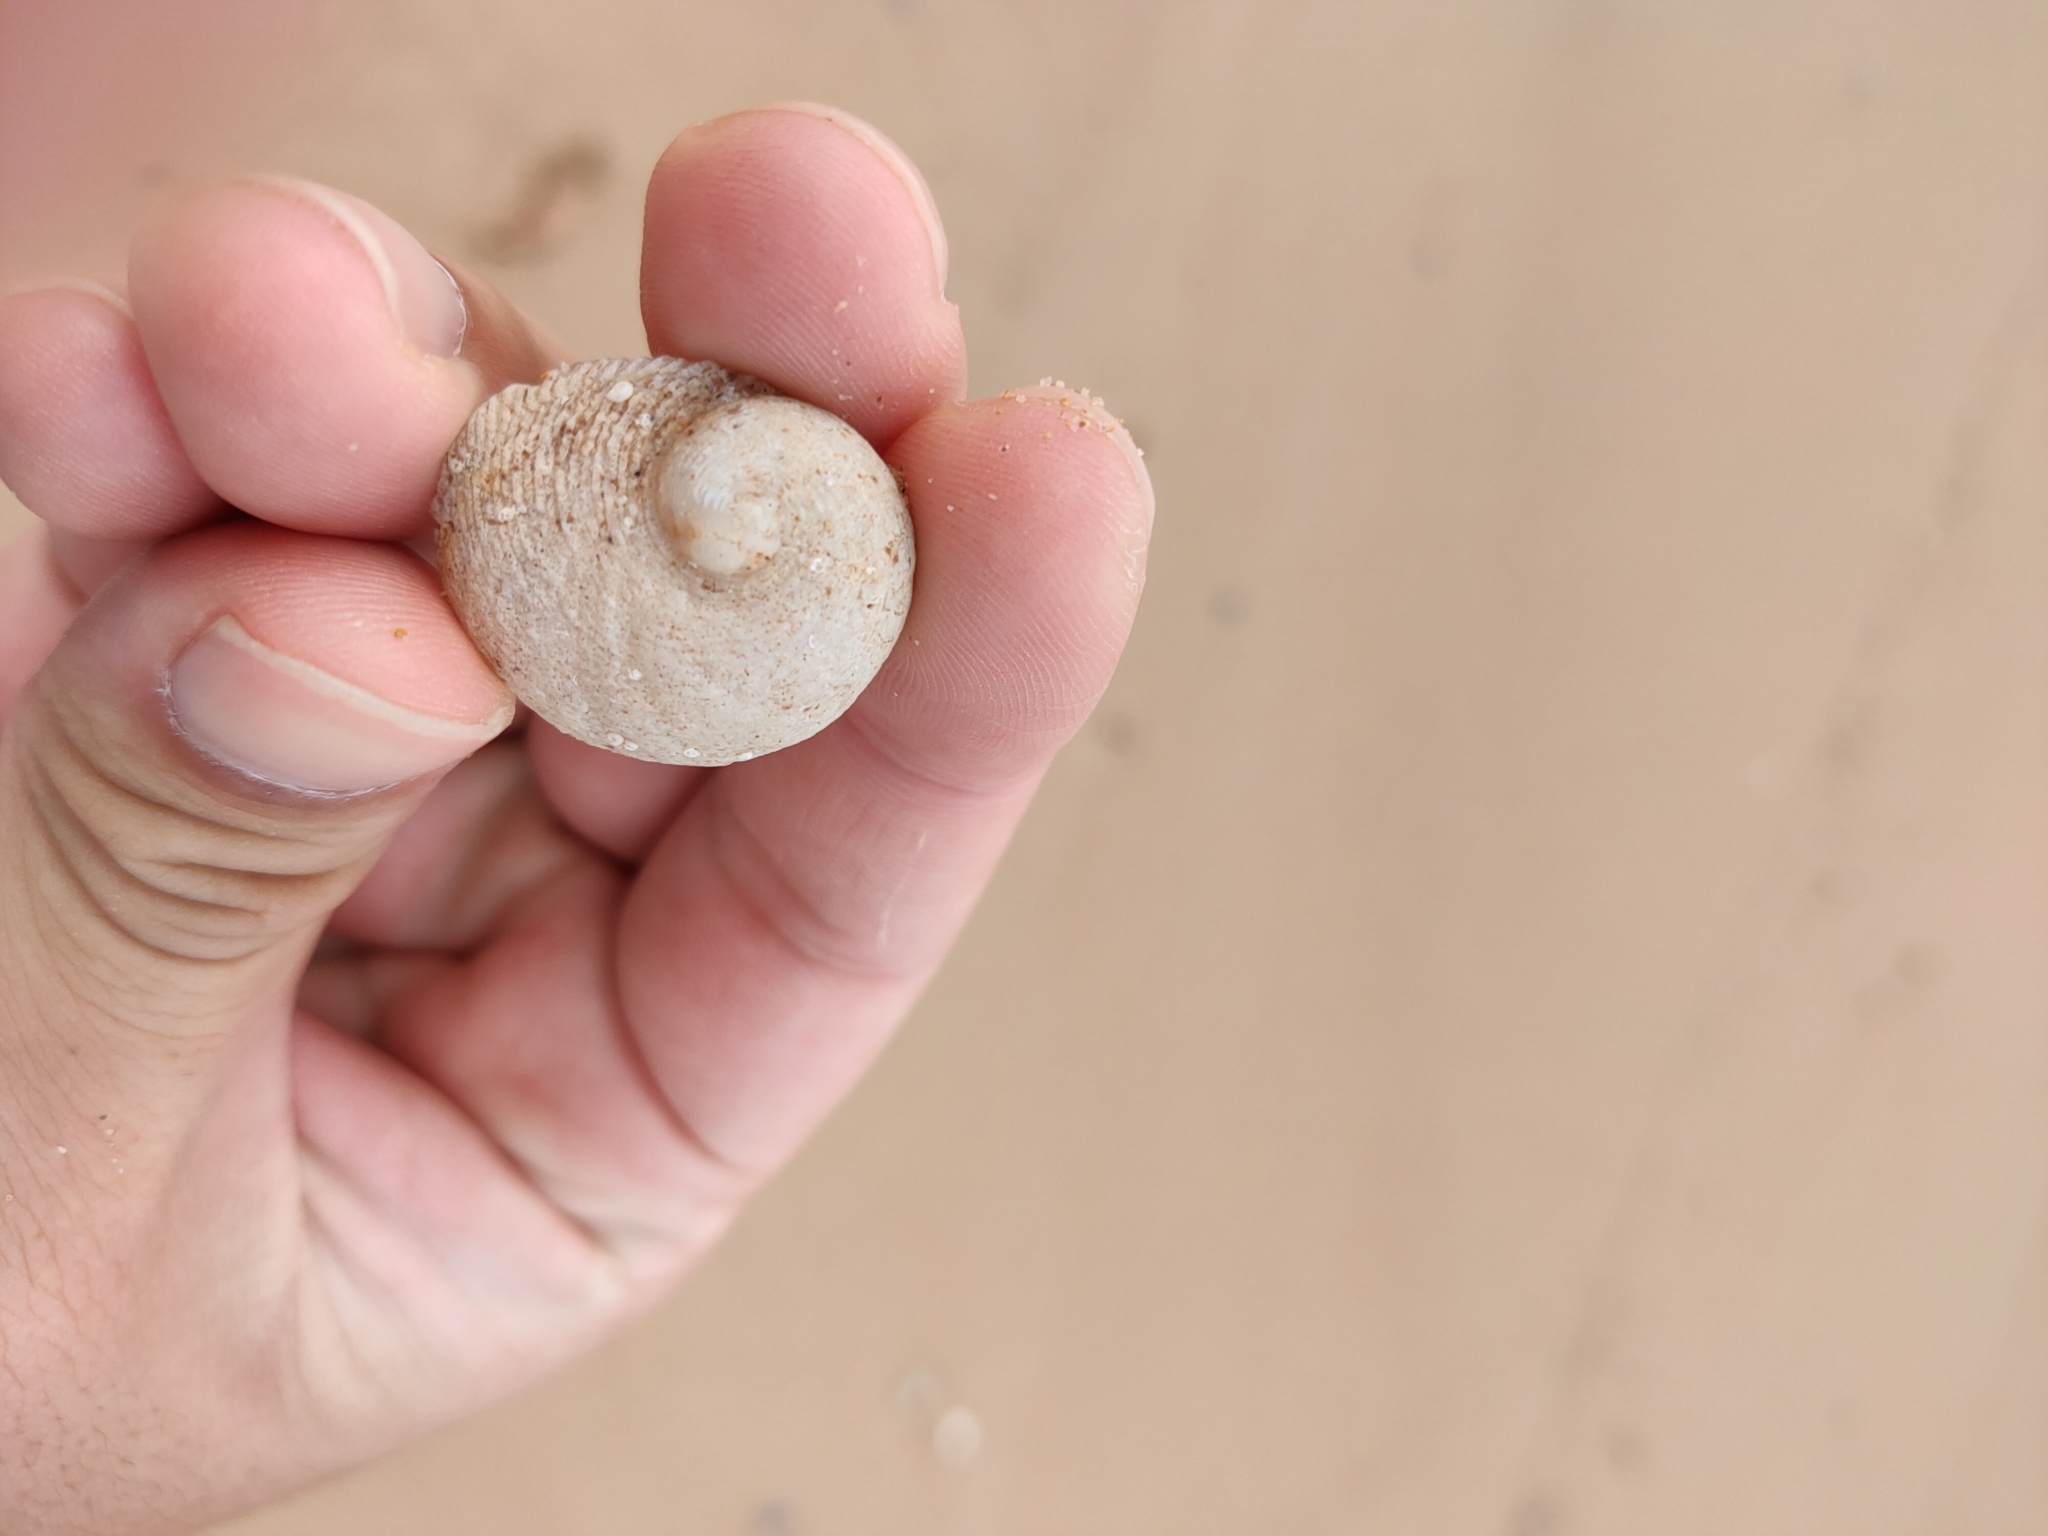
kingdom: Animalia
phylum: Mollusca
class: Gastropoda
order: Seguenziida
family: Chilodontaidae
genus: Granata
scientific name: Granata imbricata
